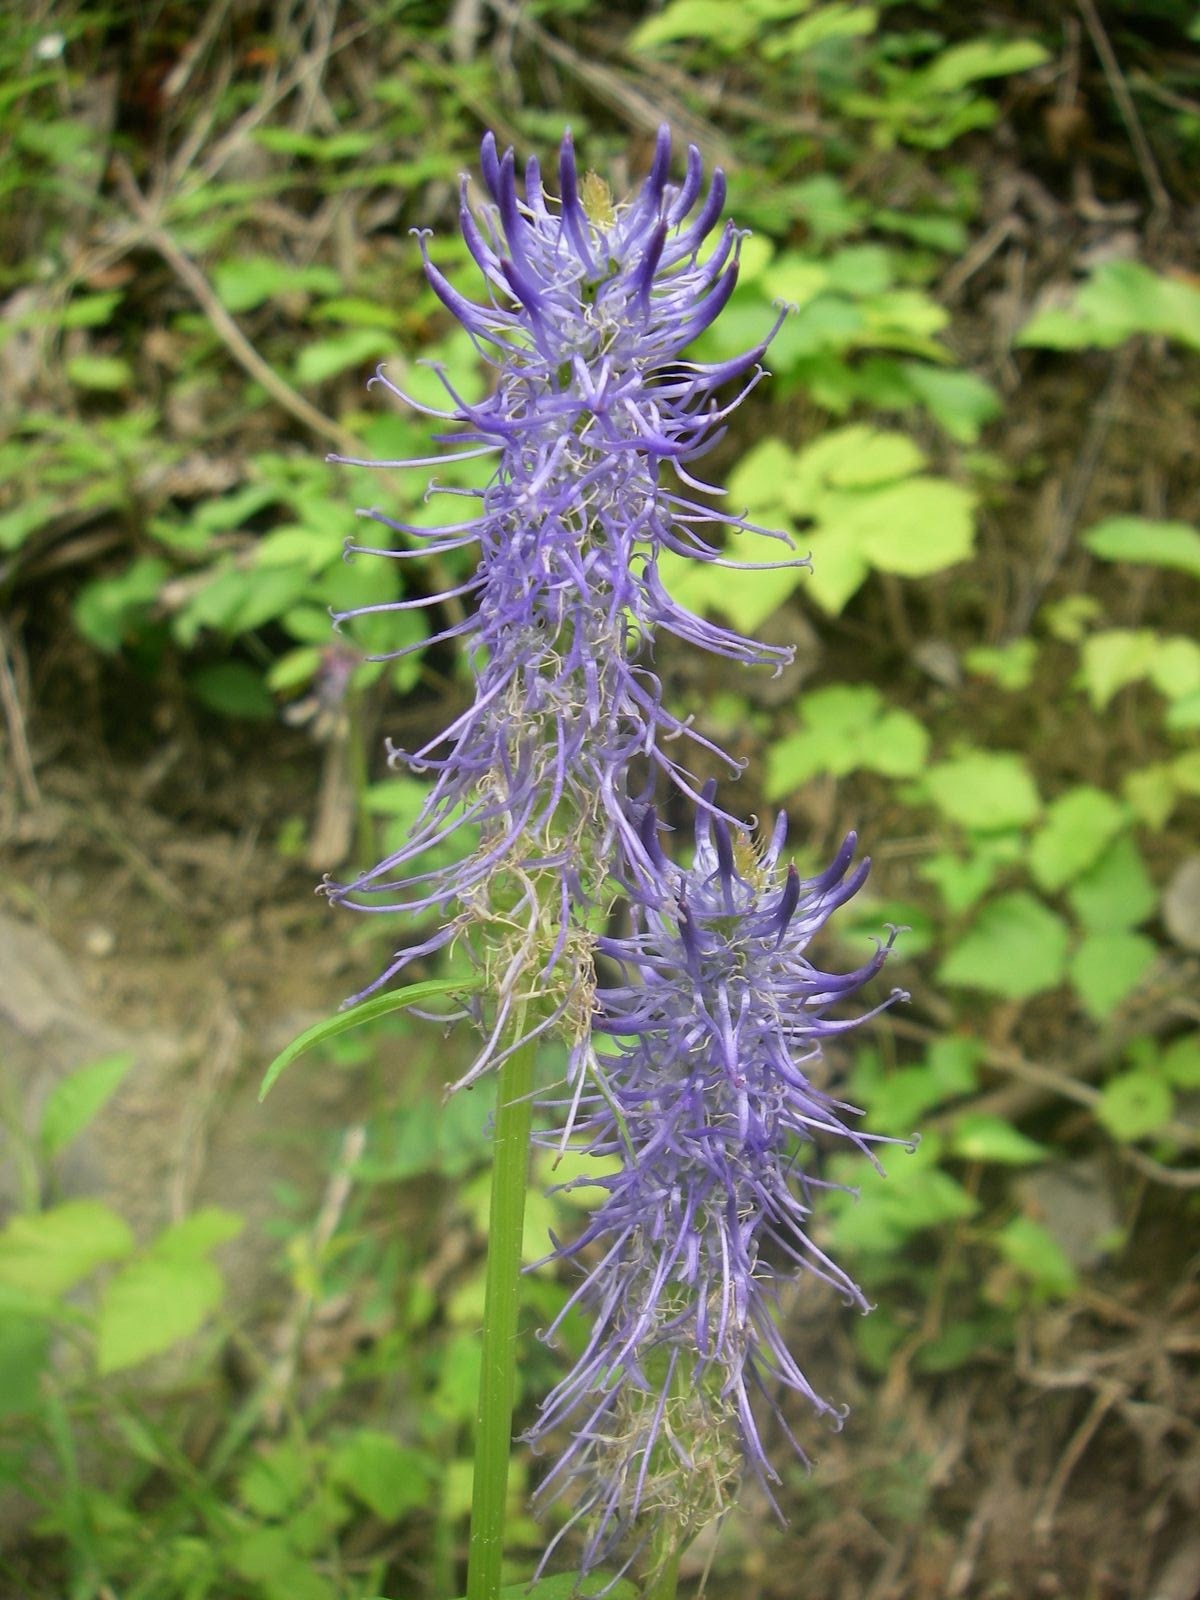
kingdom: Plantae
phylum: Tracheophyta
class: Magnoliopsida
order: Asterales
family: Campanulaceae
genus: Phyteuma
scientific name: Phyteuma spicatum
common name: Spiked rampion
